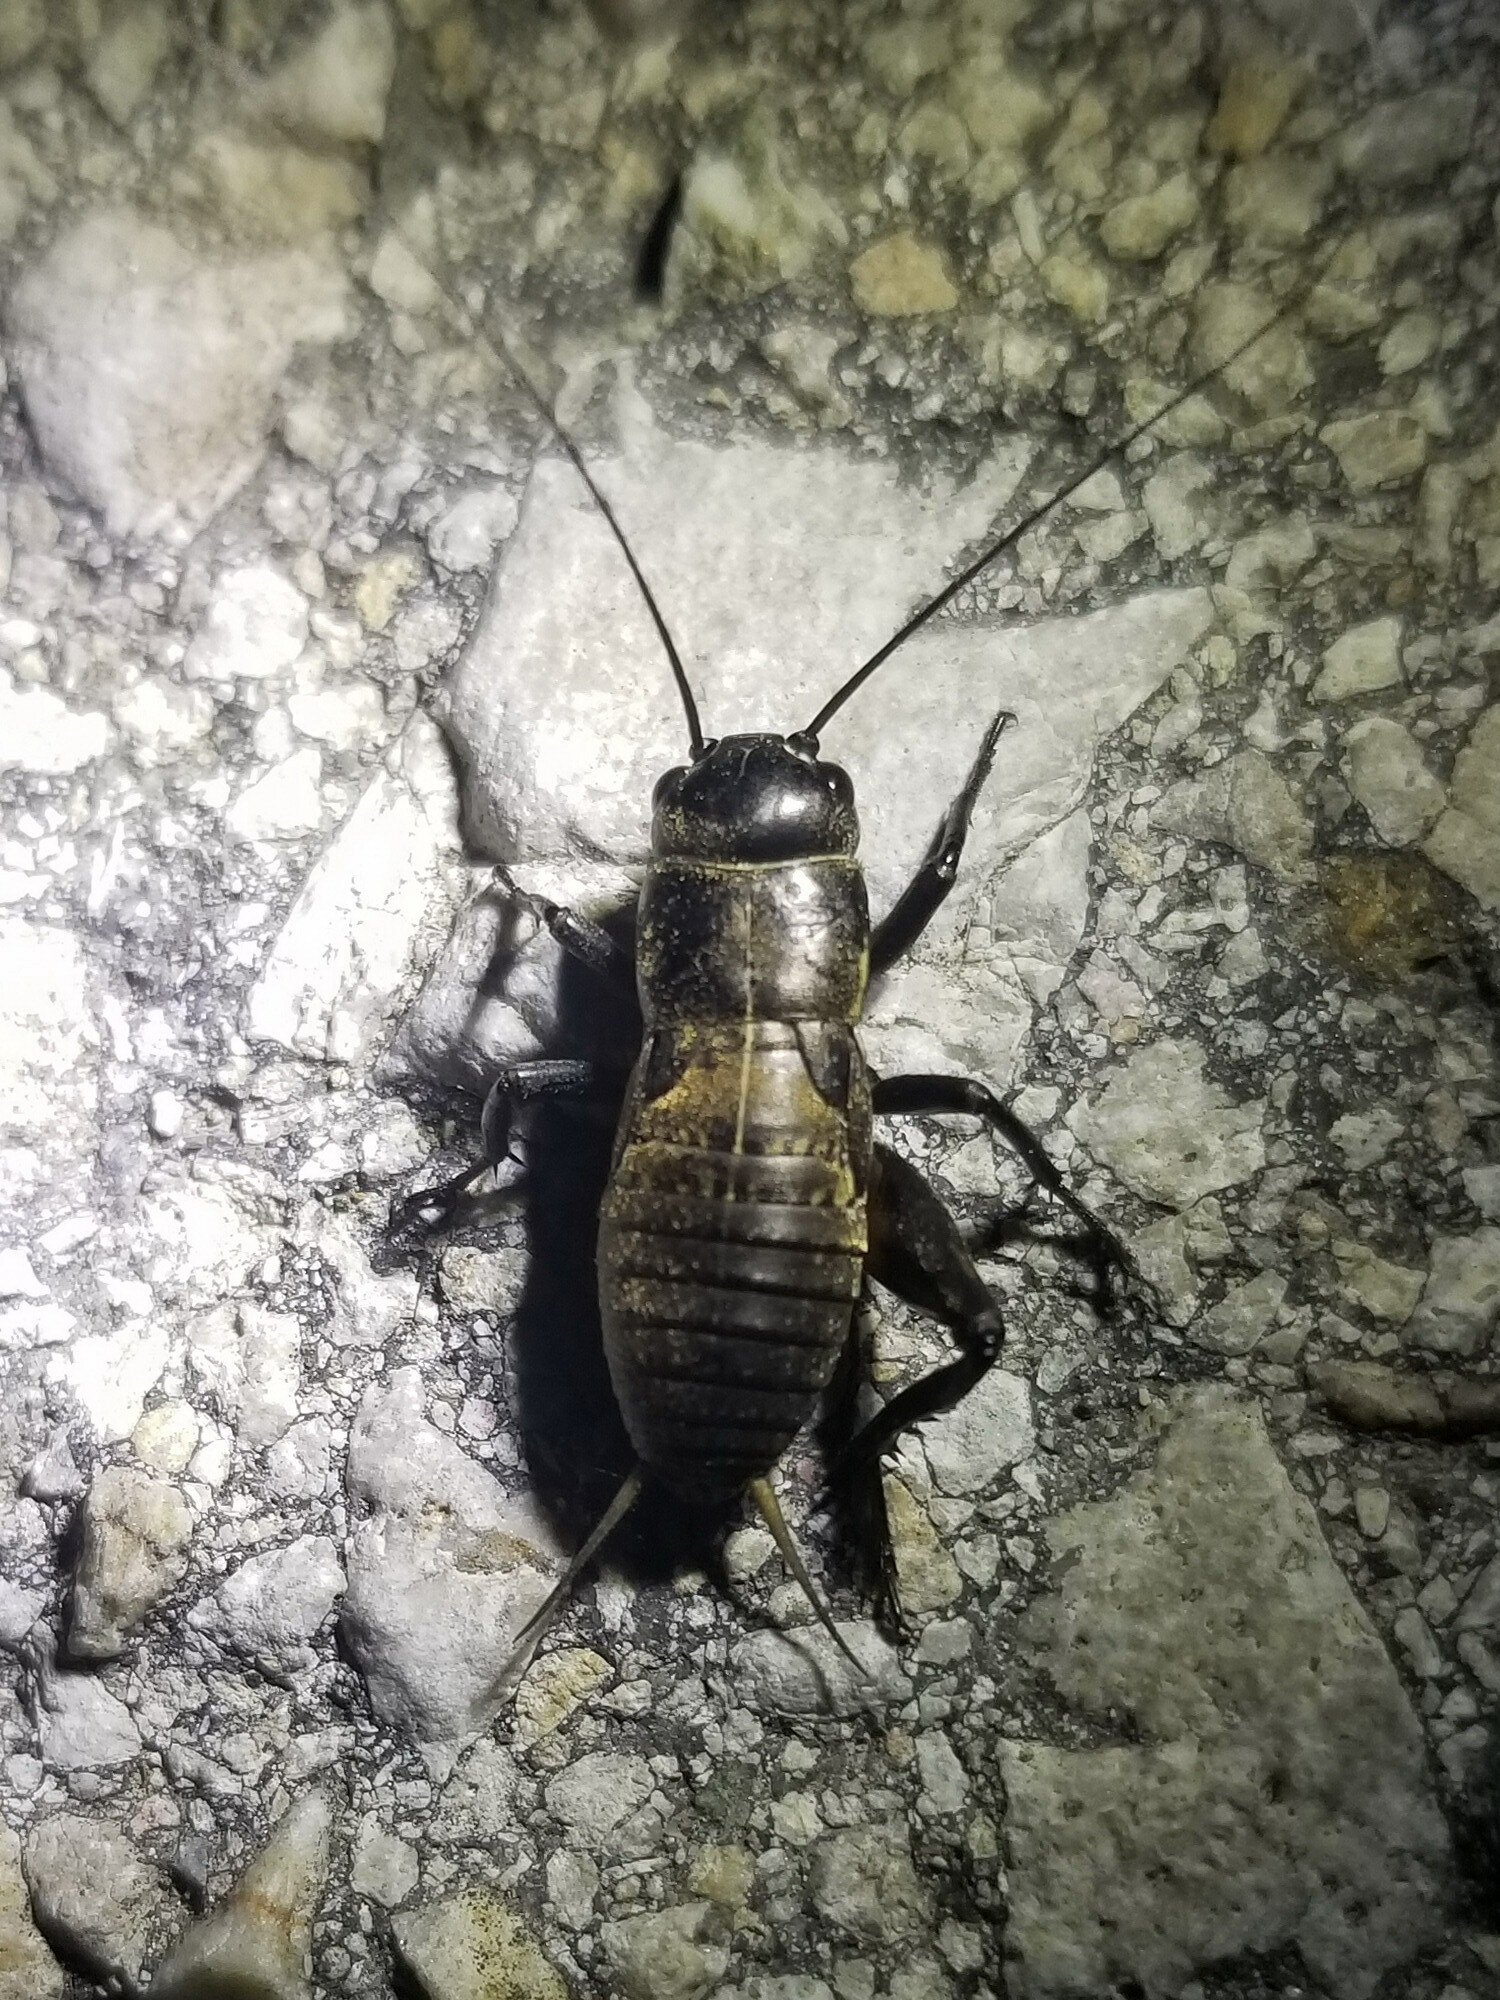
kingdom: Animalia
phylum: Arthropoda
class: Insecta
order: Orthoptera
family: Gryllidae
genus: Gryllus
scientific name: Gryllus campestris
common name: Field cricket
